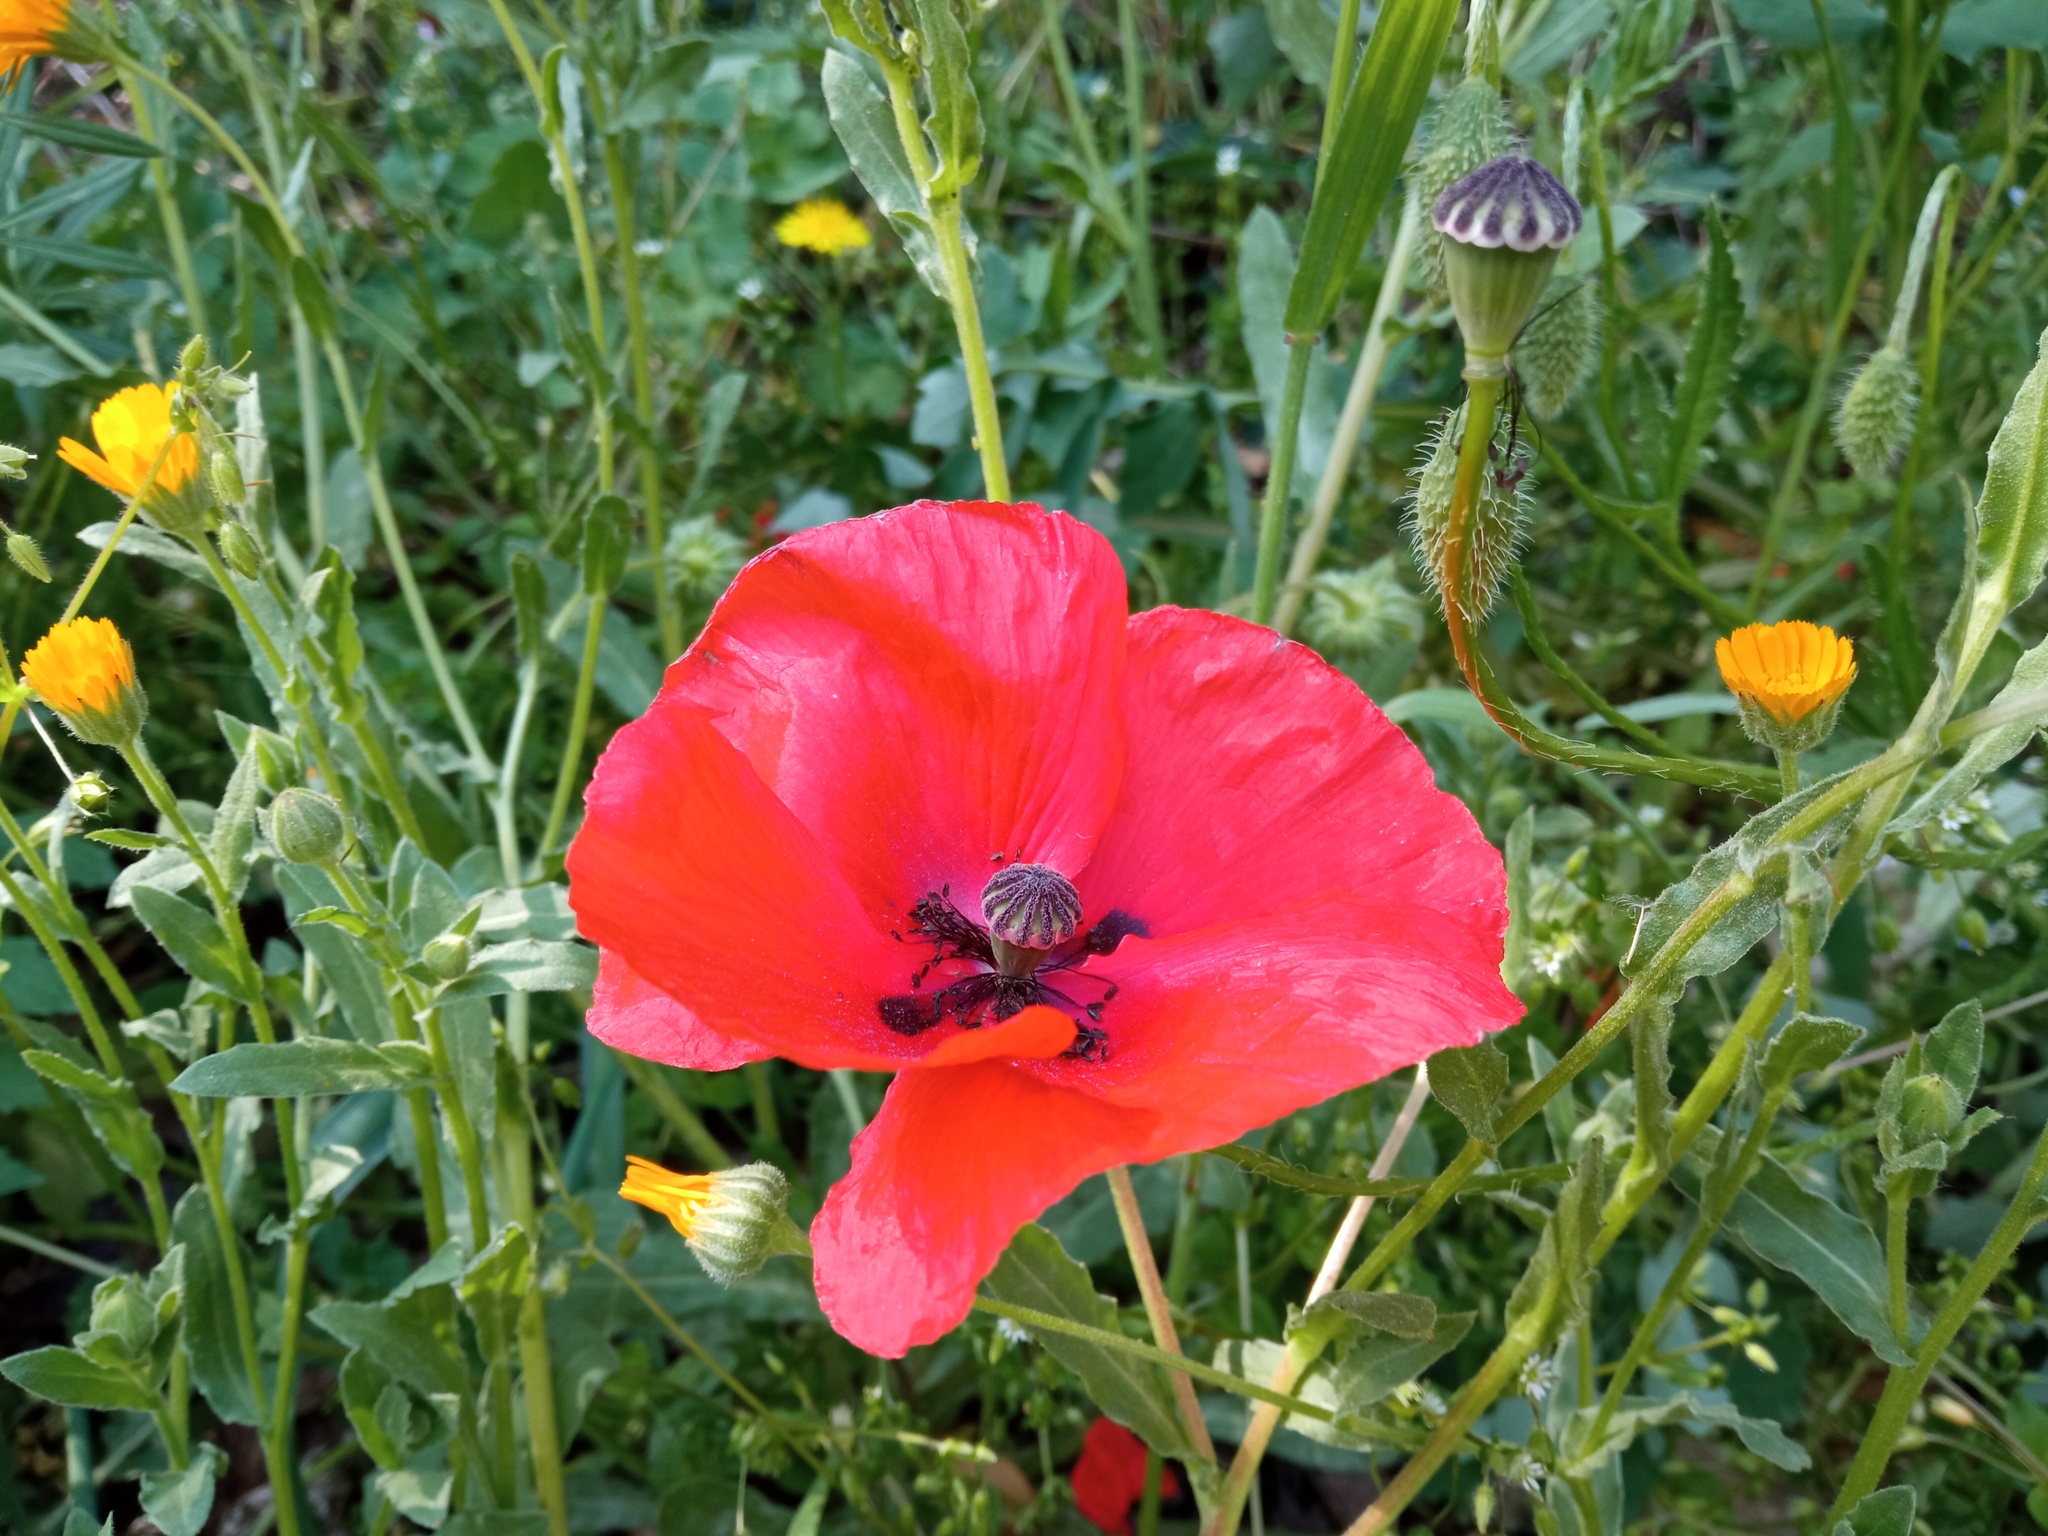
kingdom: Plantae
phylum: Tracheophyta
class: Magnoliopsida
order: Ranunculales
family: Papaveraceae
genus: Papaver
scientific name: Papaver rhoeas
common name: Corn poppy
